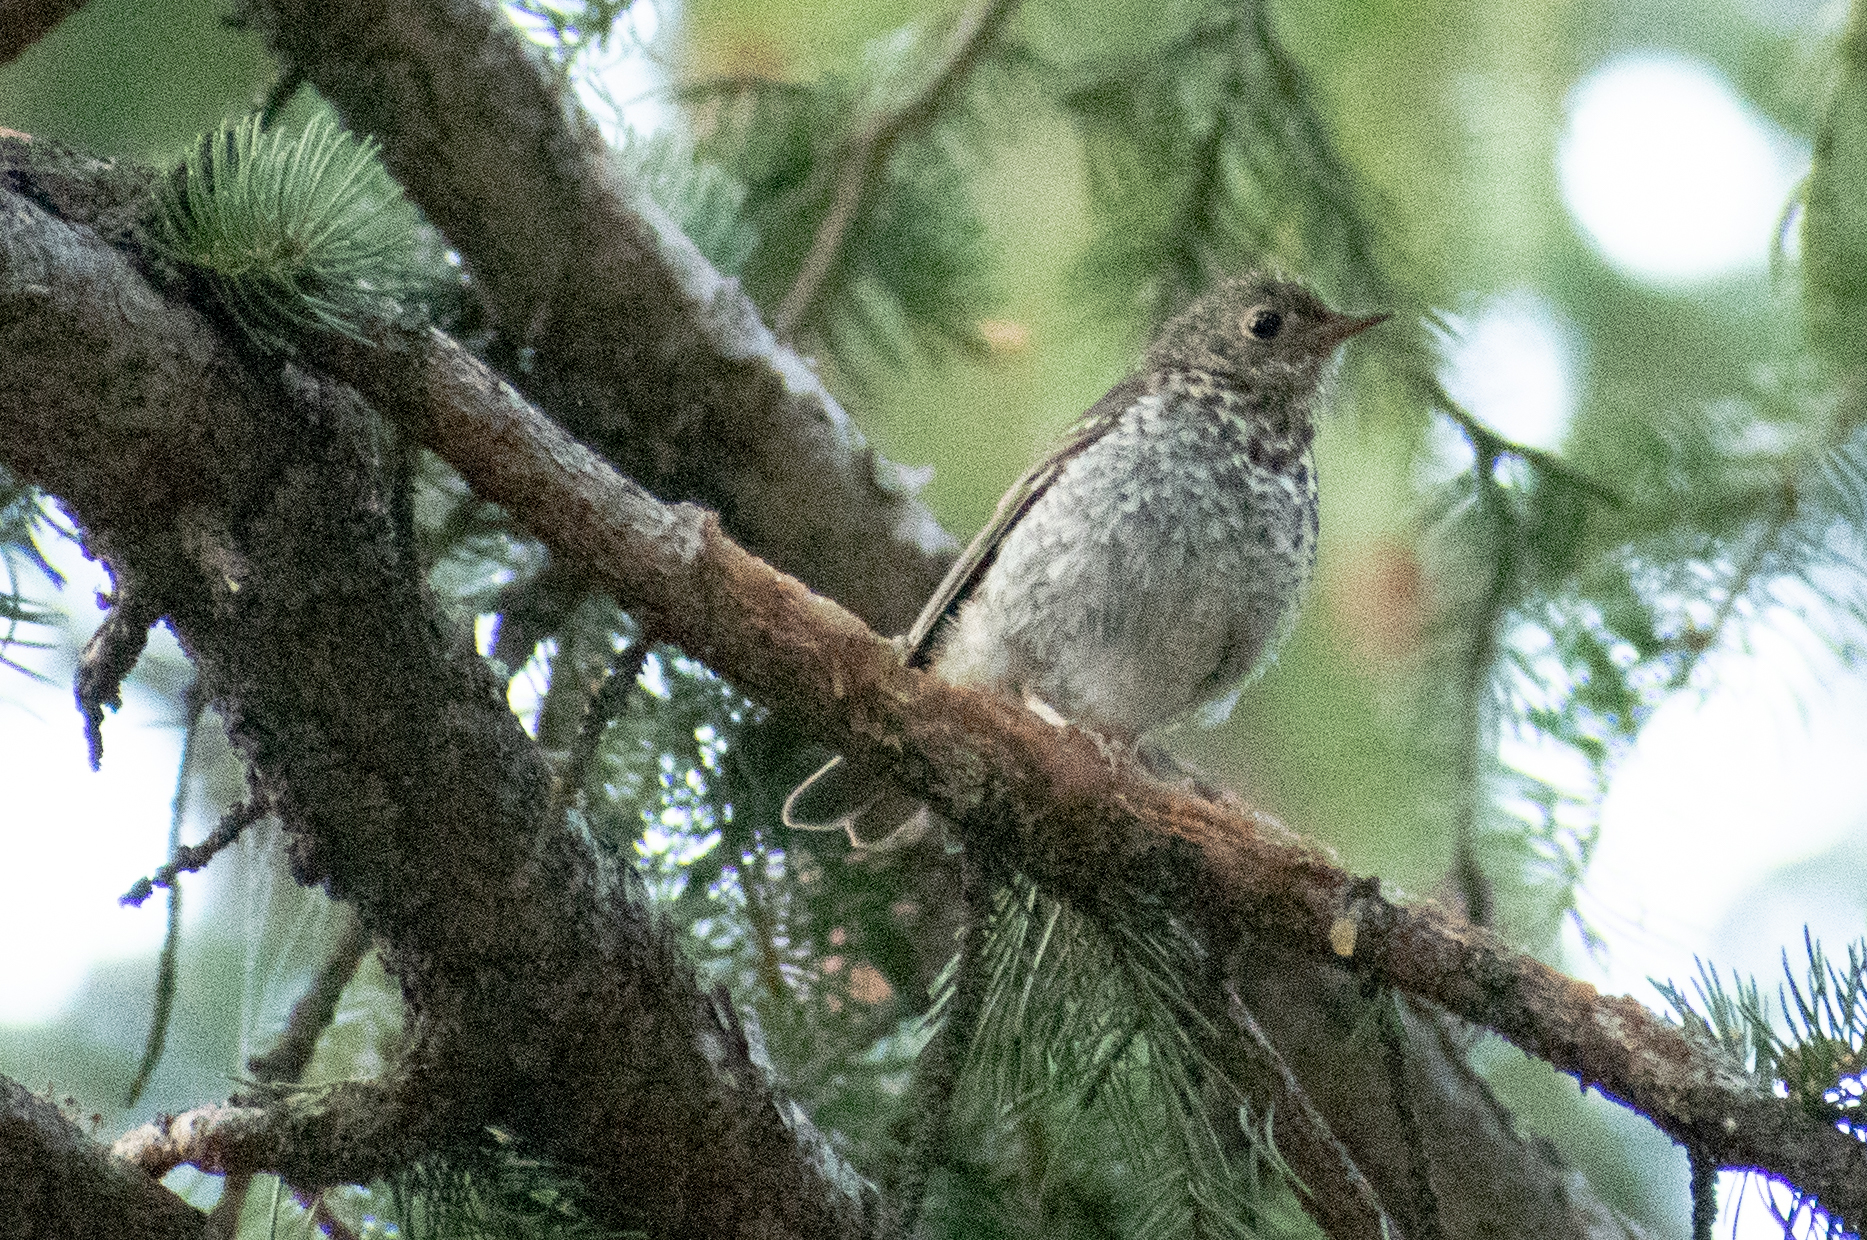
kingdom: Animalia
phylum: Chordata
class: Aves
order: Passeriformes
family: Turdidae
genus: Catharus
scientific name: Catharus ustulatus
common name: Swainson's thrush
